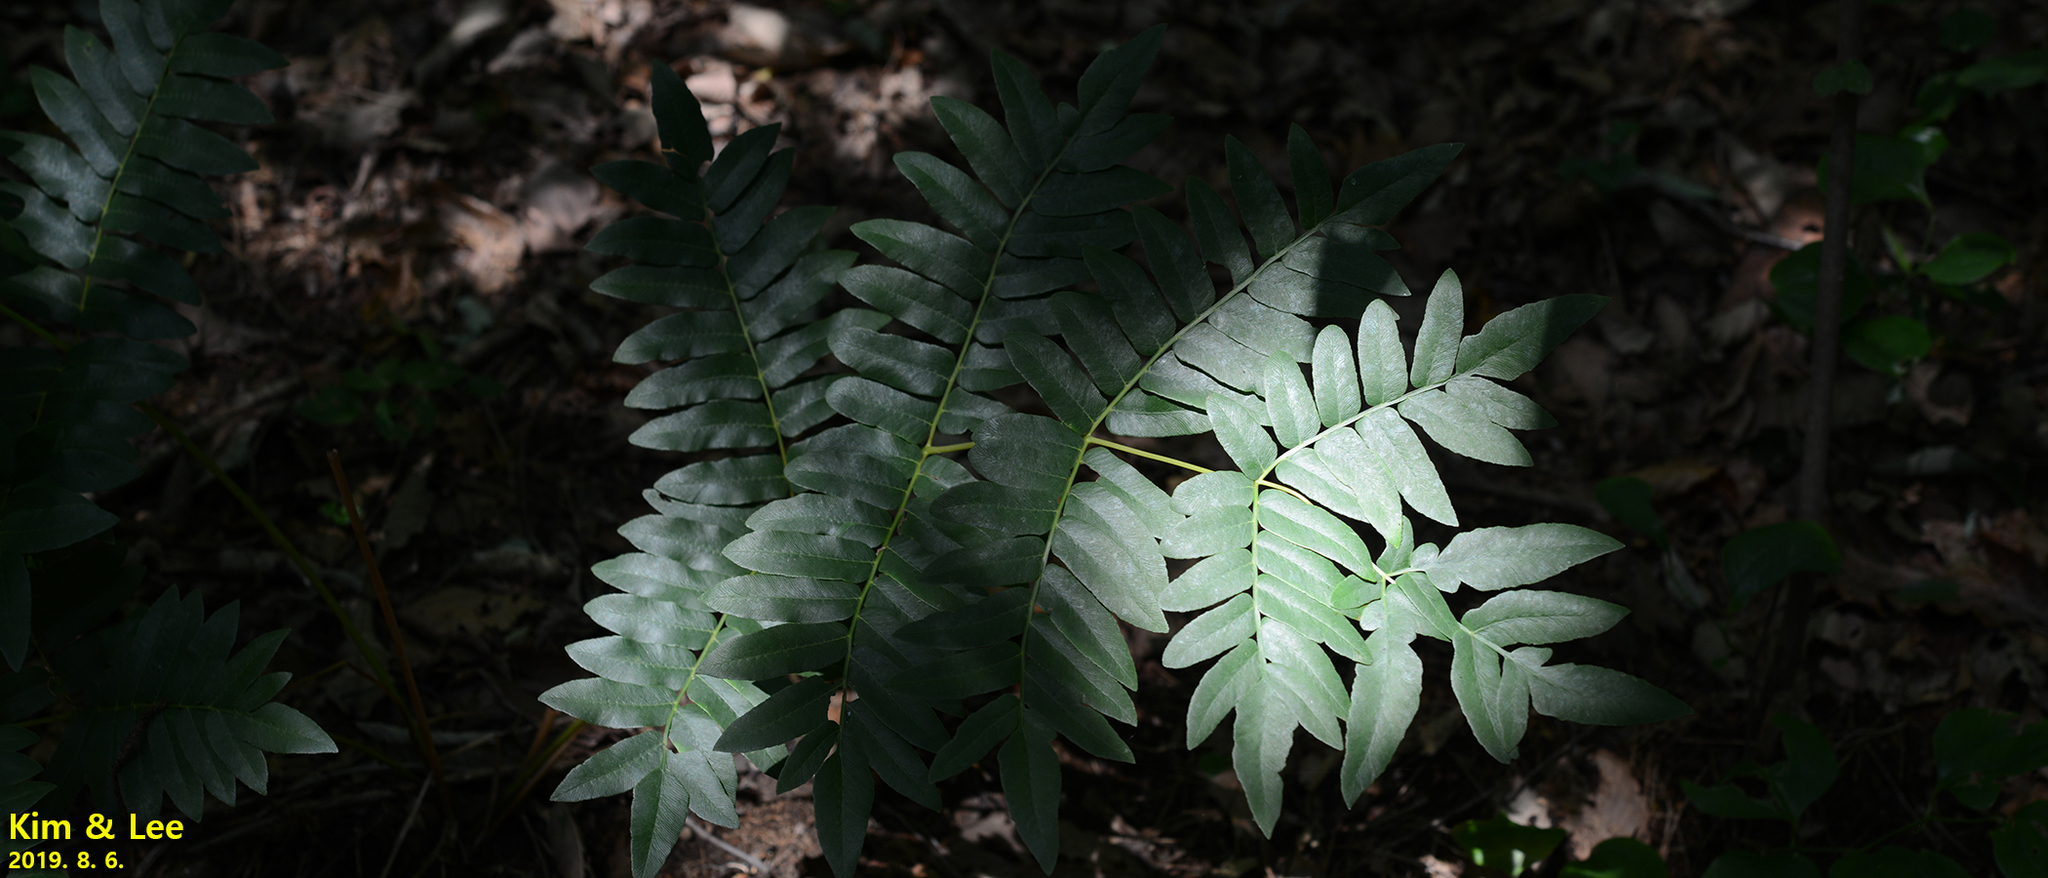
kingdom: Plantae
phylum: Tracheophyta
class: Polypodiopsida
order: Osmundales
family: Osmundaceae
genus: Osmunda
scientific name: Osmunda japonica
